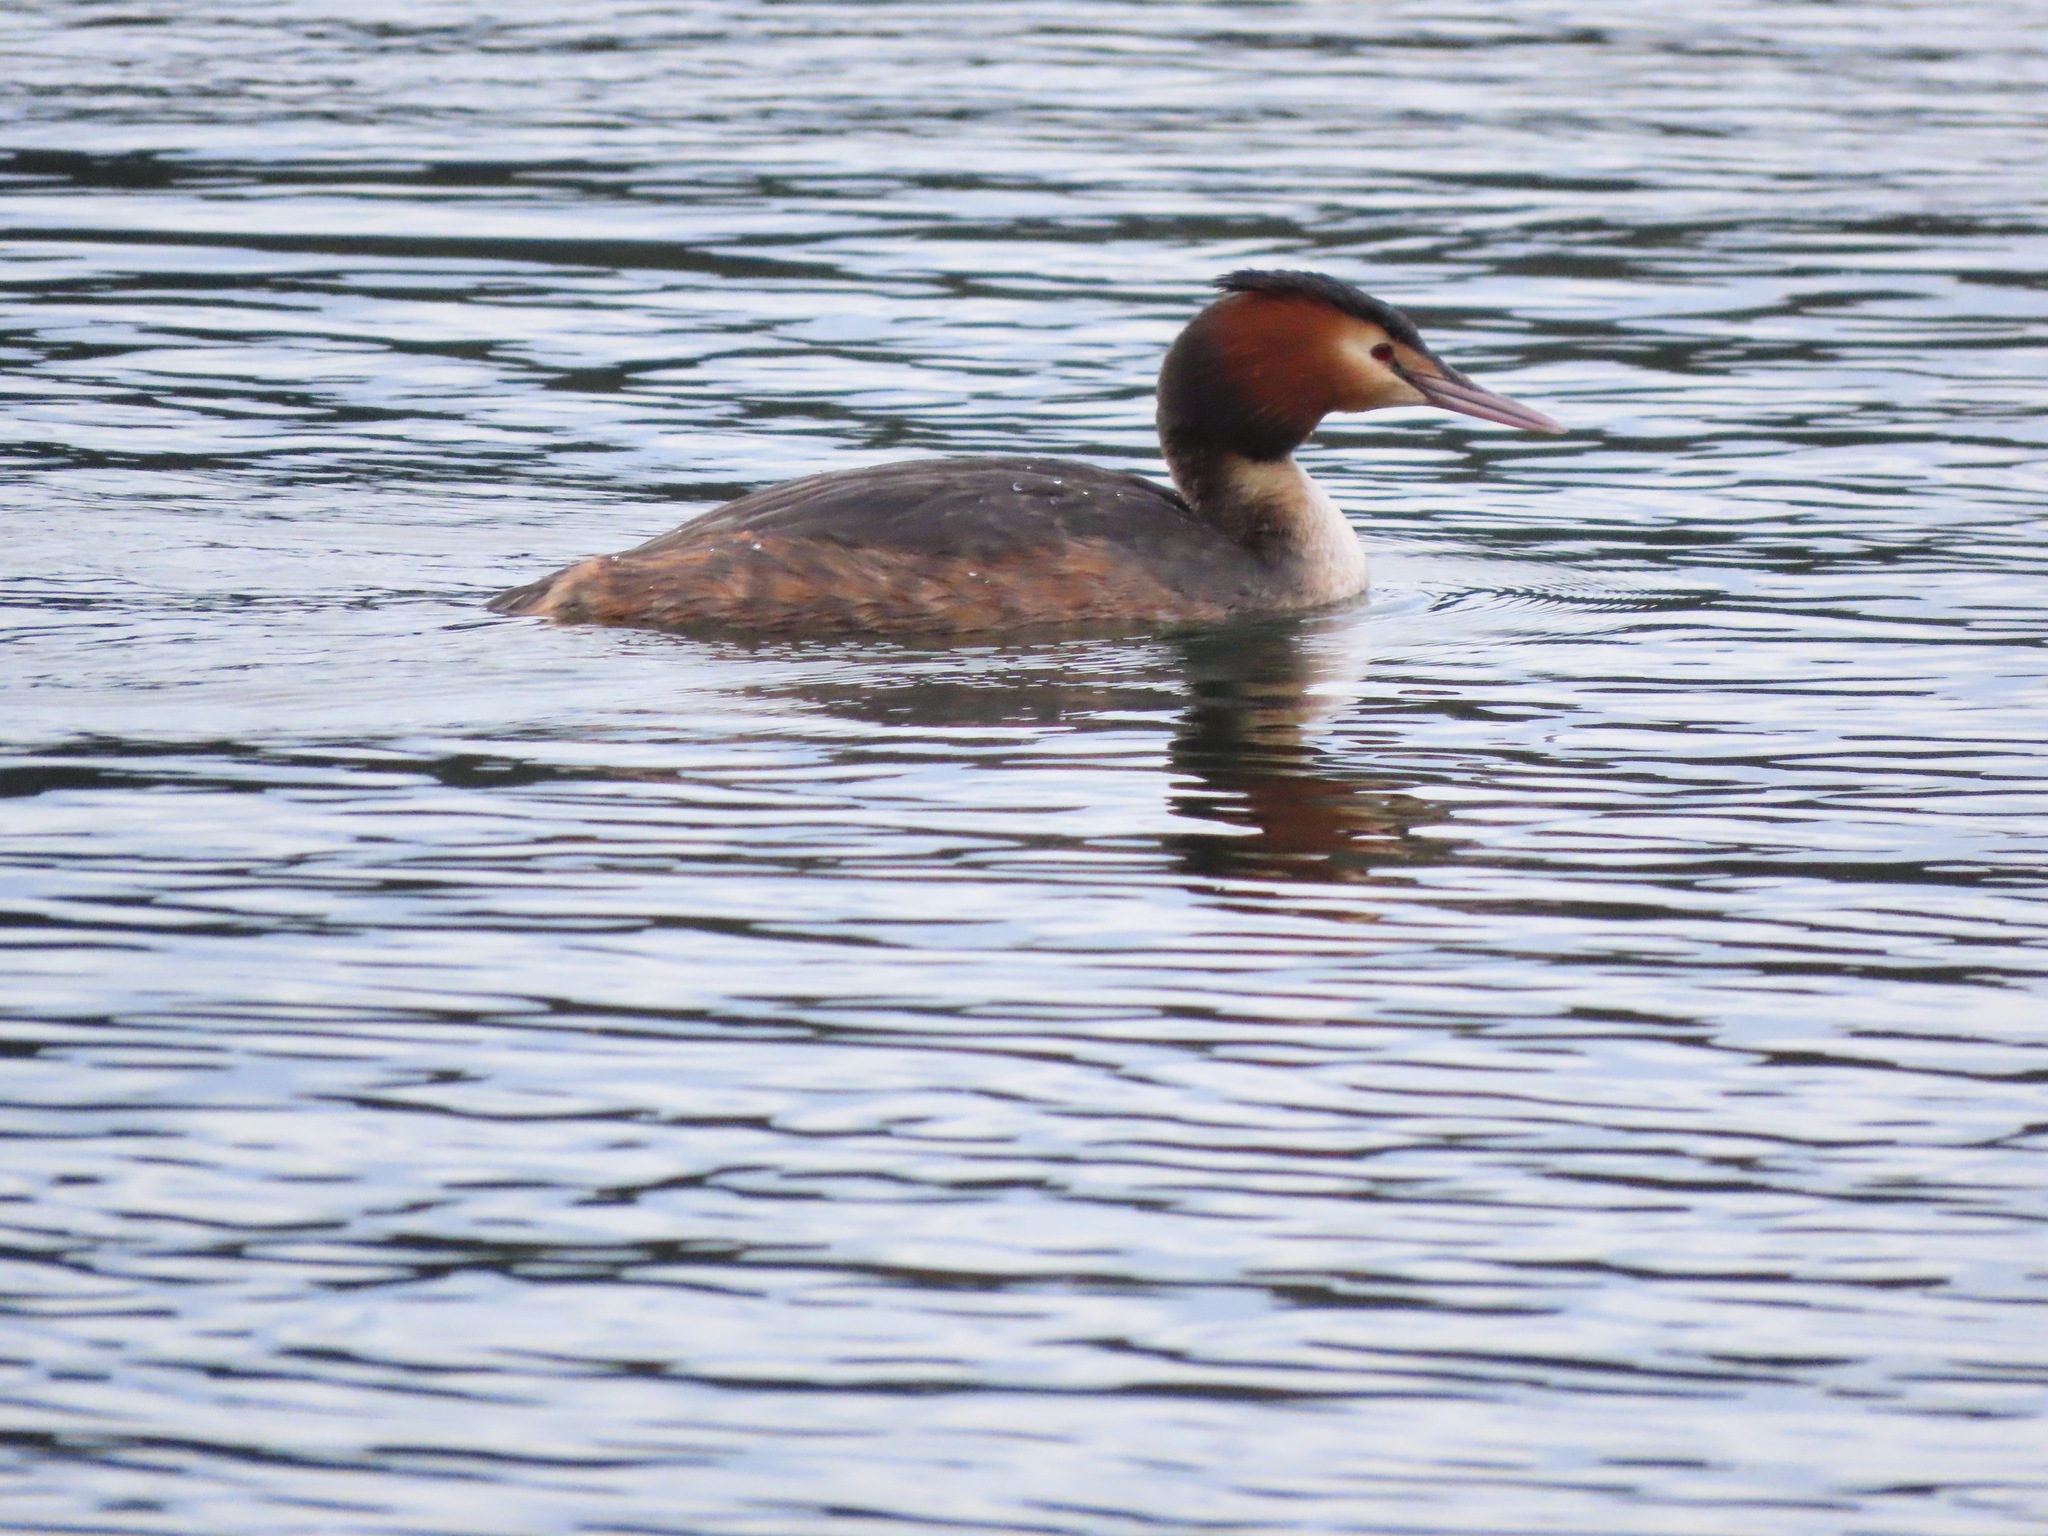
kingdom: Animalia
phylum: Chordata
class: Aves
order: Podicipediformes
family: Podicipedidae
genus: Podiceps
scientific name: Podiceps cristatus
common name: Great crested grebe
